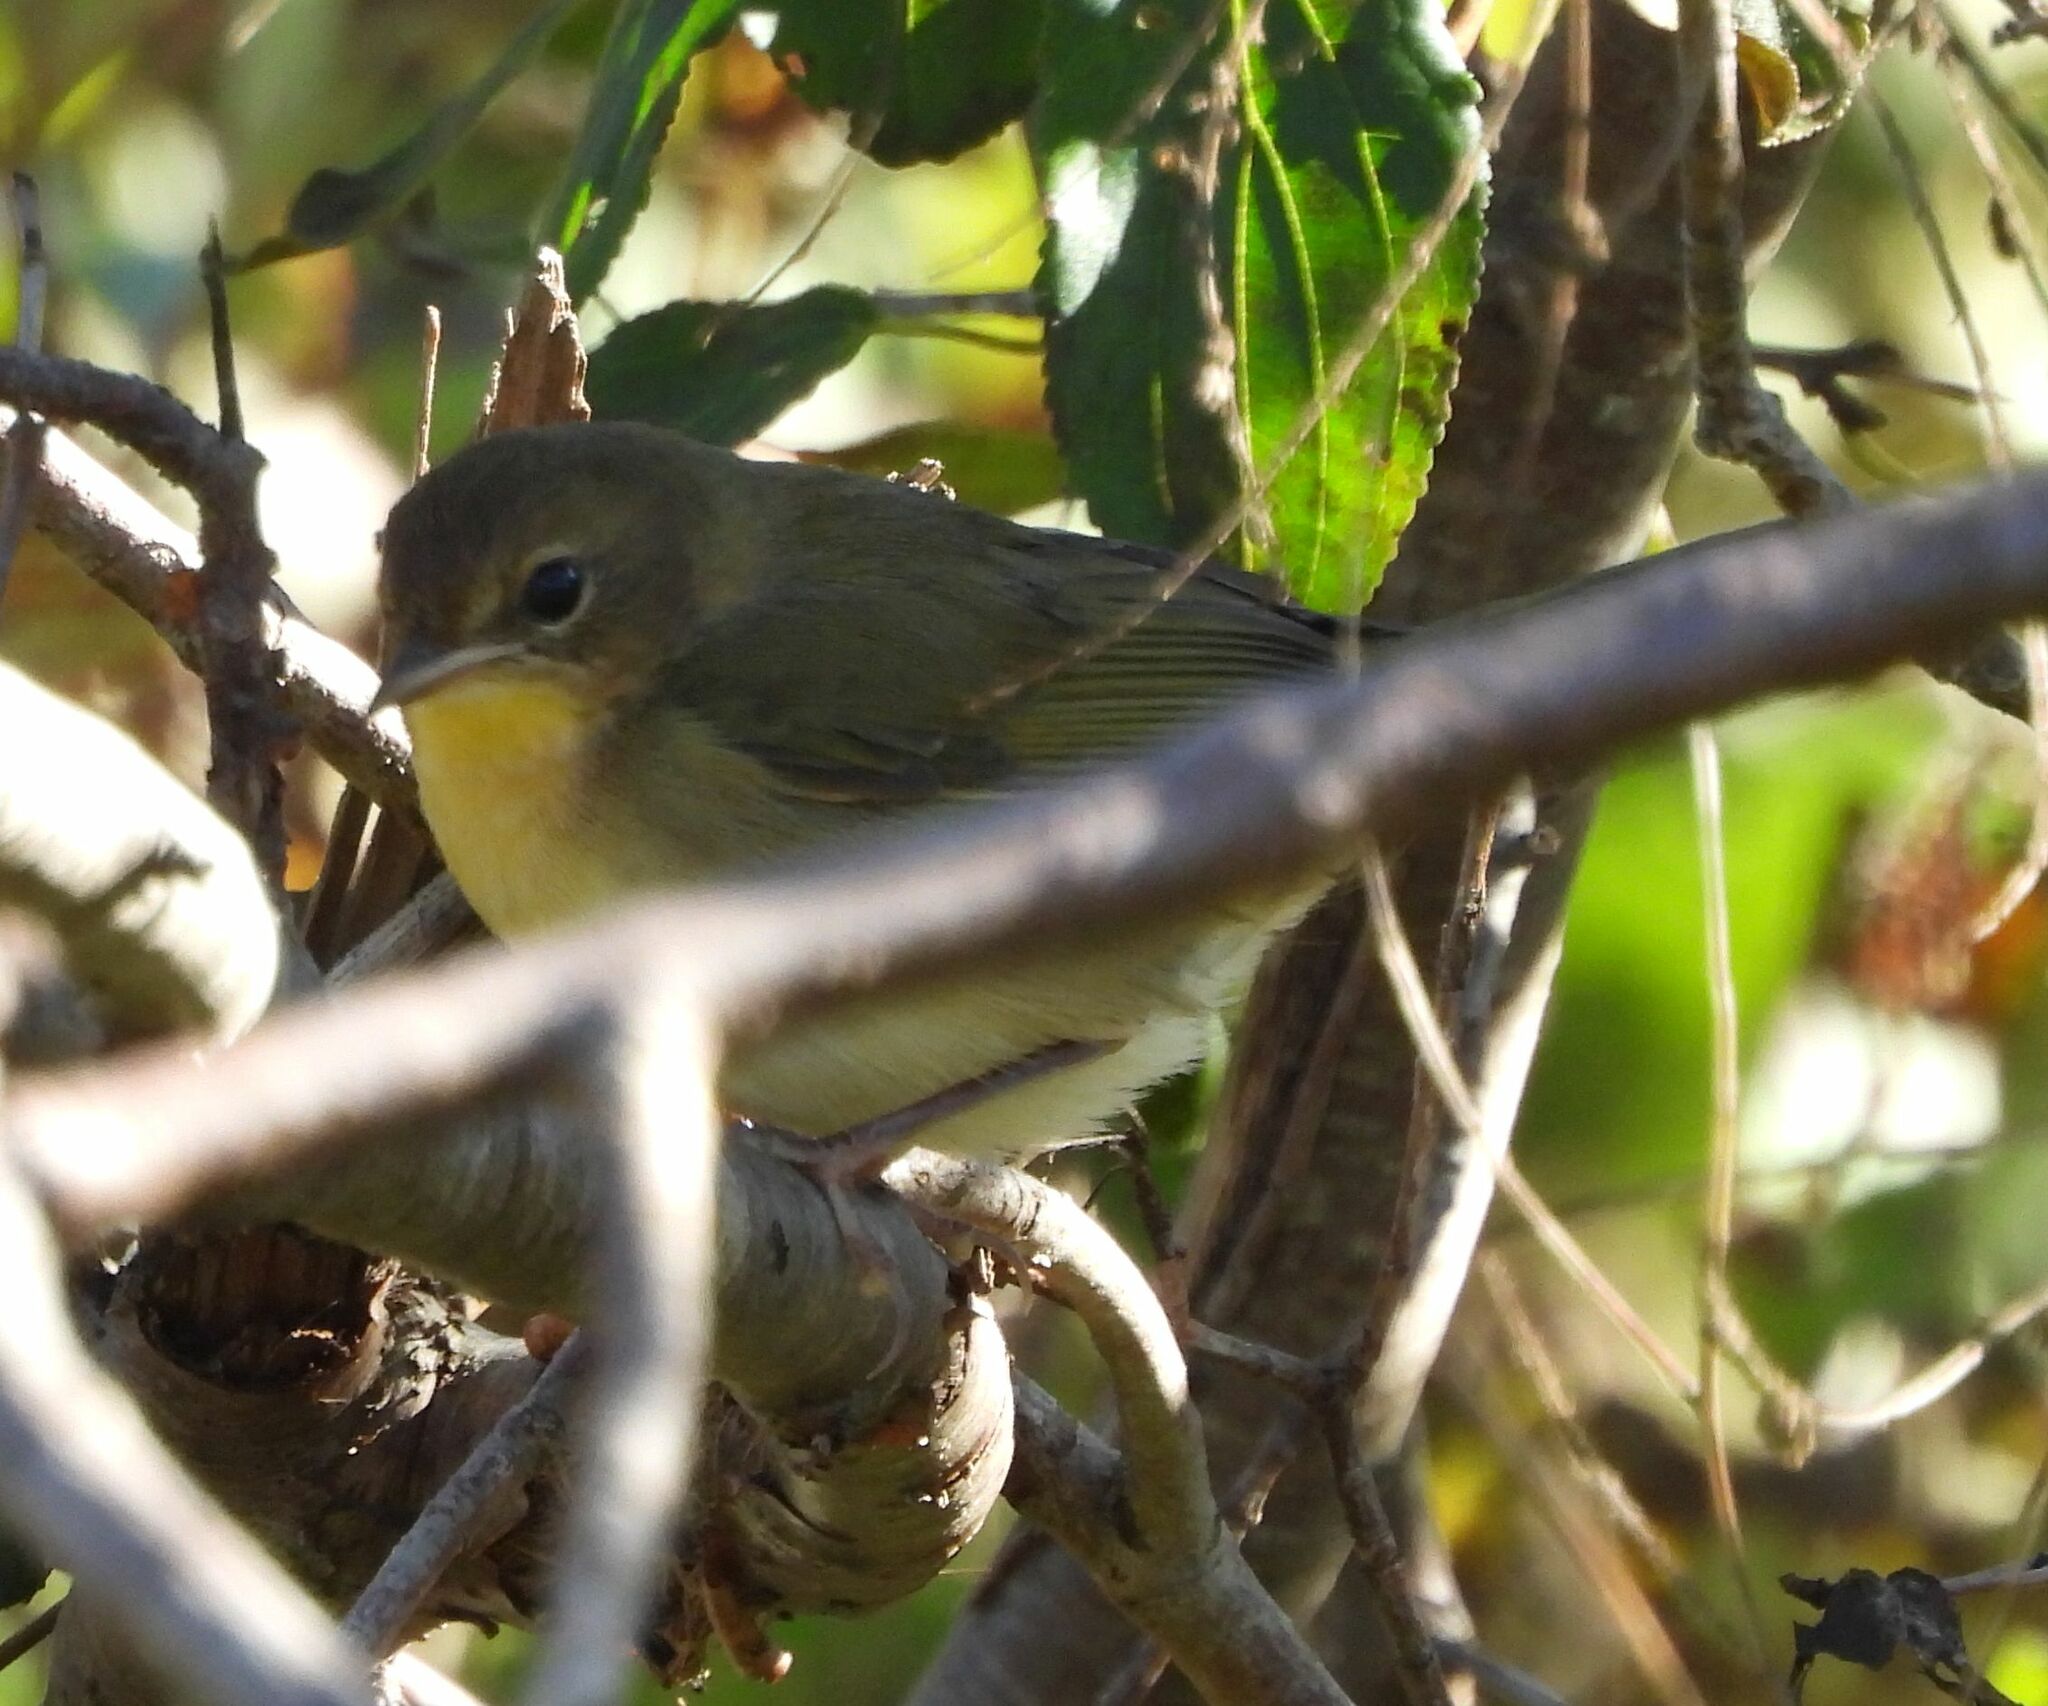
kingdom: Animalia
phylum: Chordata
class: Aves
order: Passeriformes
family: Parulidae
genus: Geothlypis
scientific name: Geothlypis trichas
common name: Common yellowthroat
